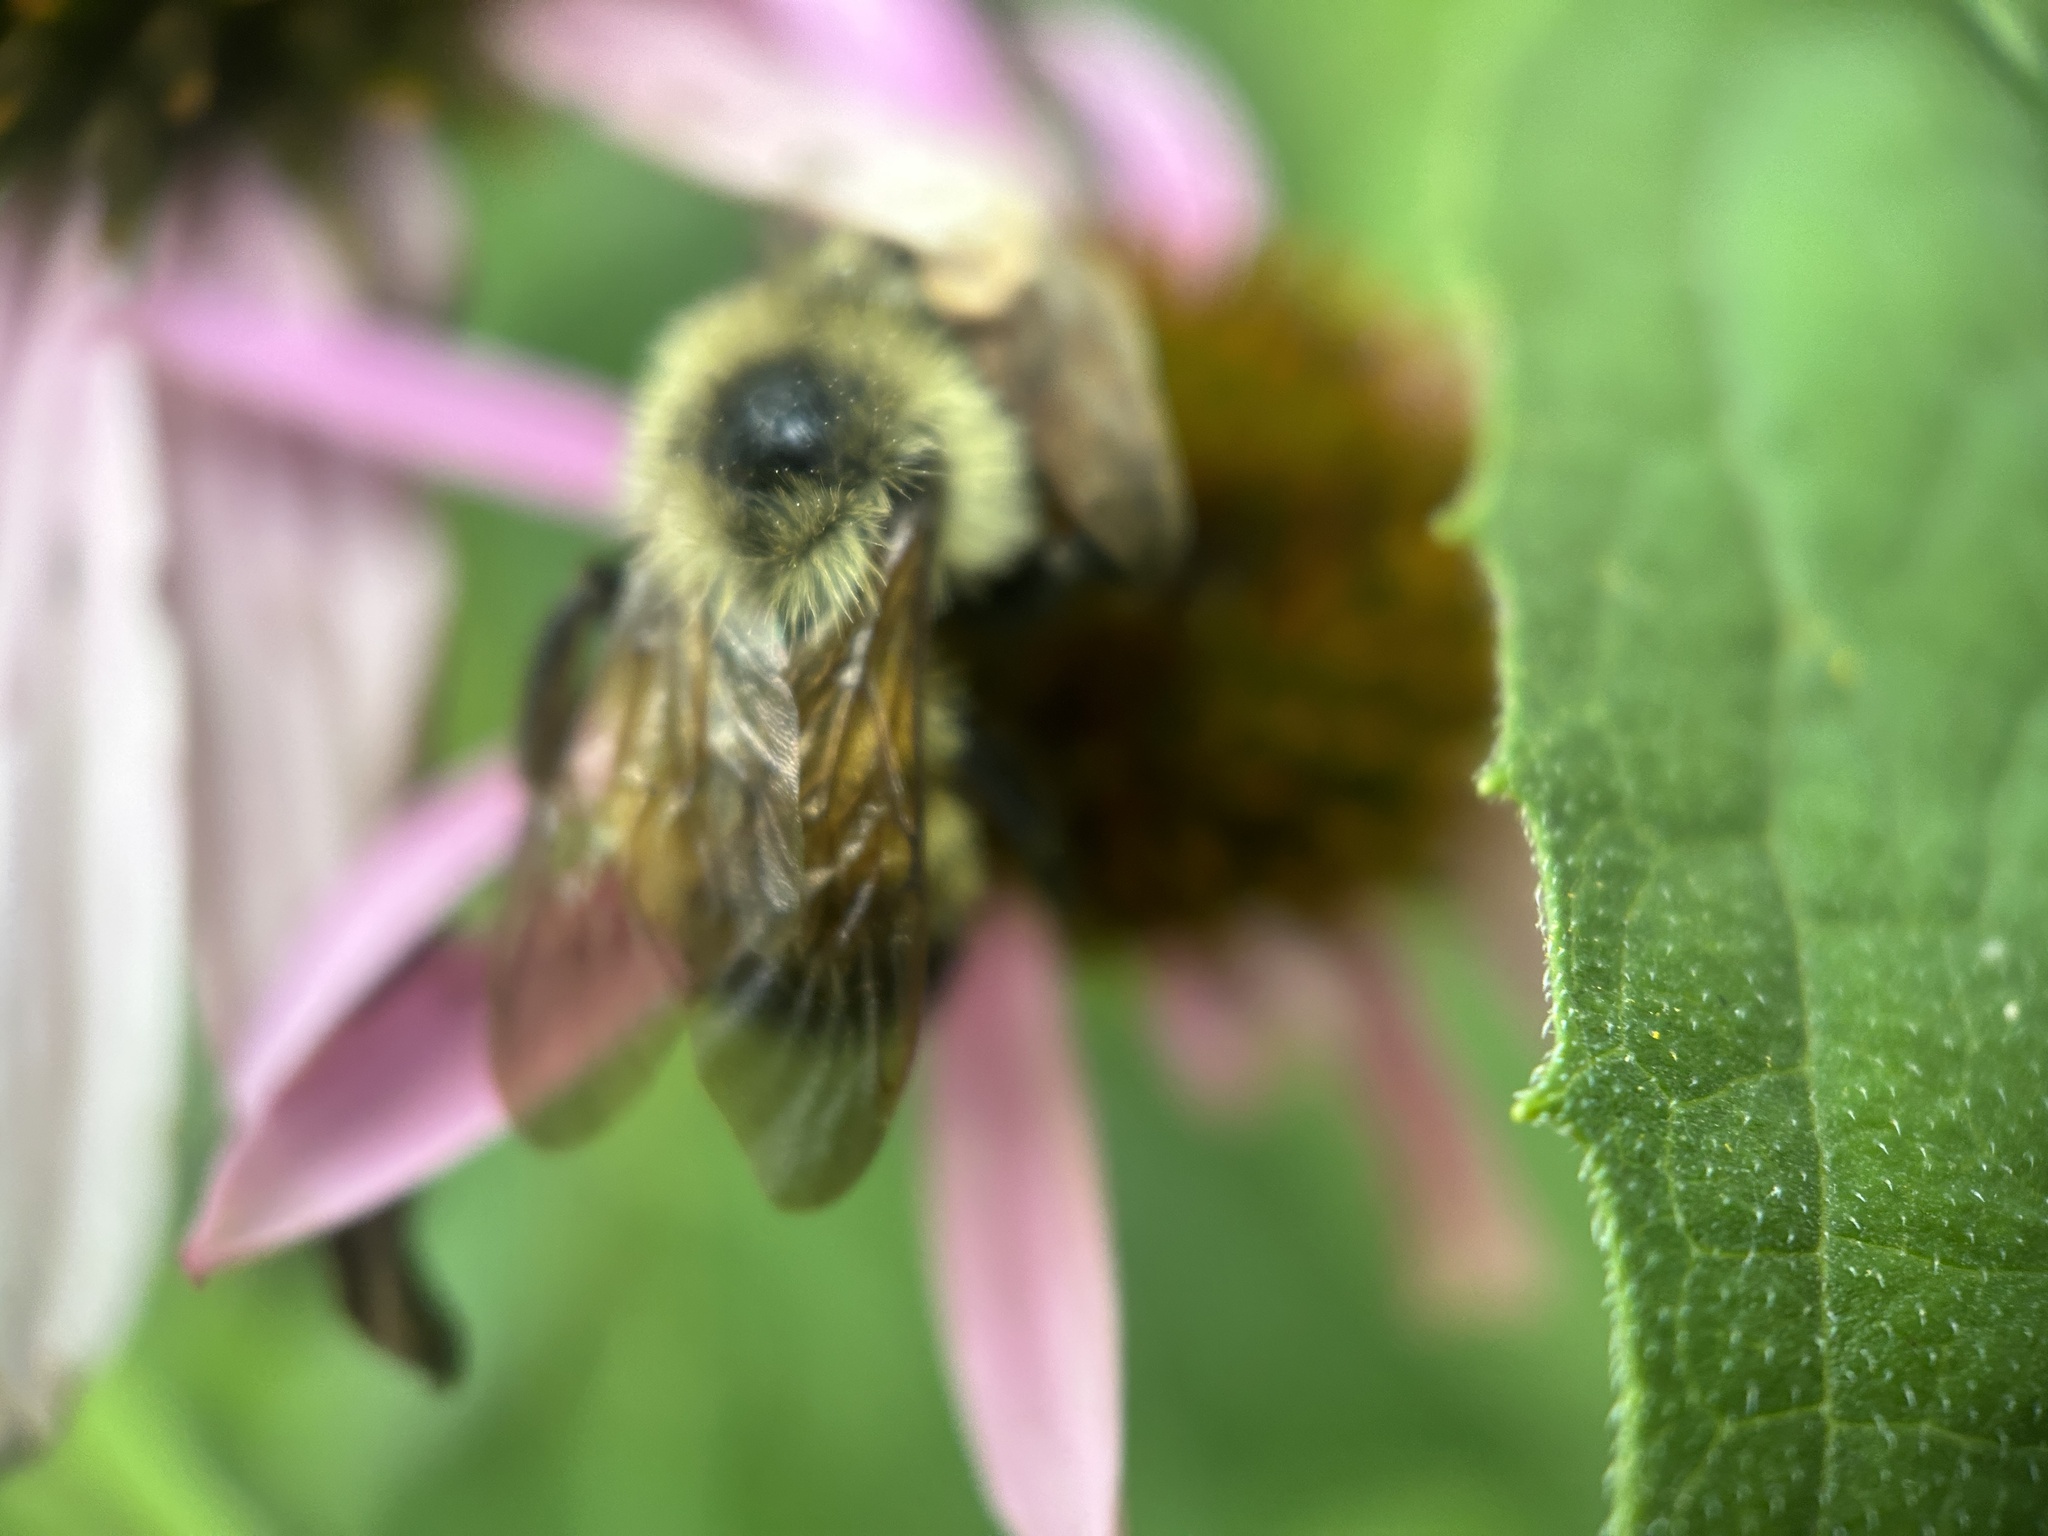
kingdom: Animalia
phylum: Arthropoda
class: Insecta
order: Hymenoptera
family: Apidae
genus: Bombus
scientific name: Bombus citrinus
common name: Lemon cuckoo bumble bee
